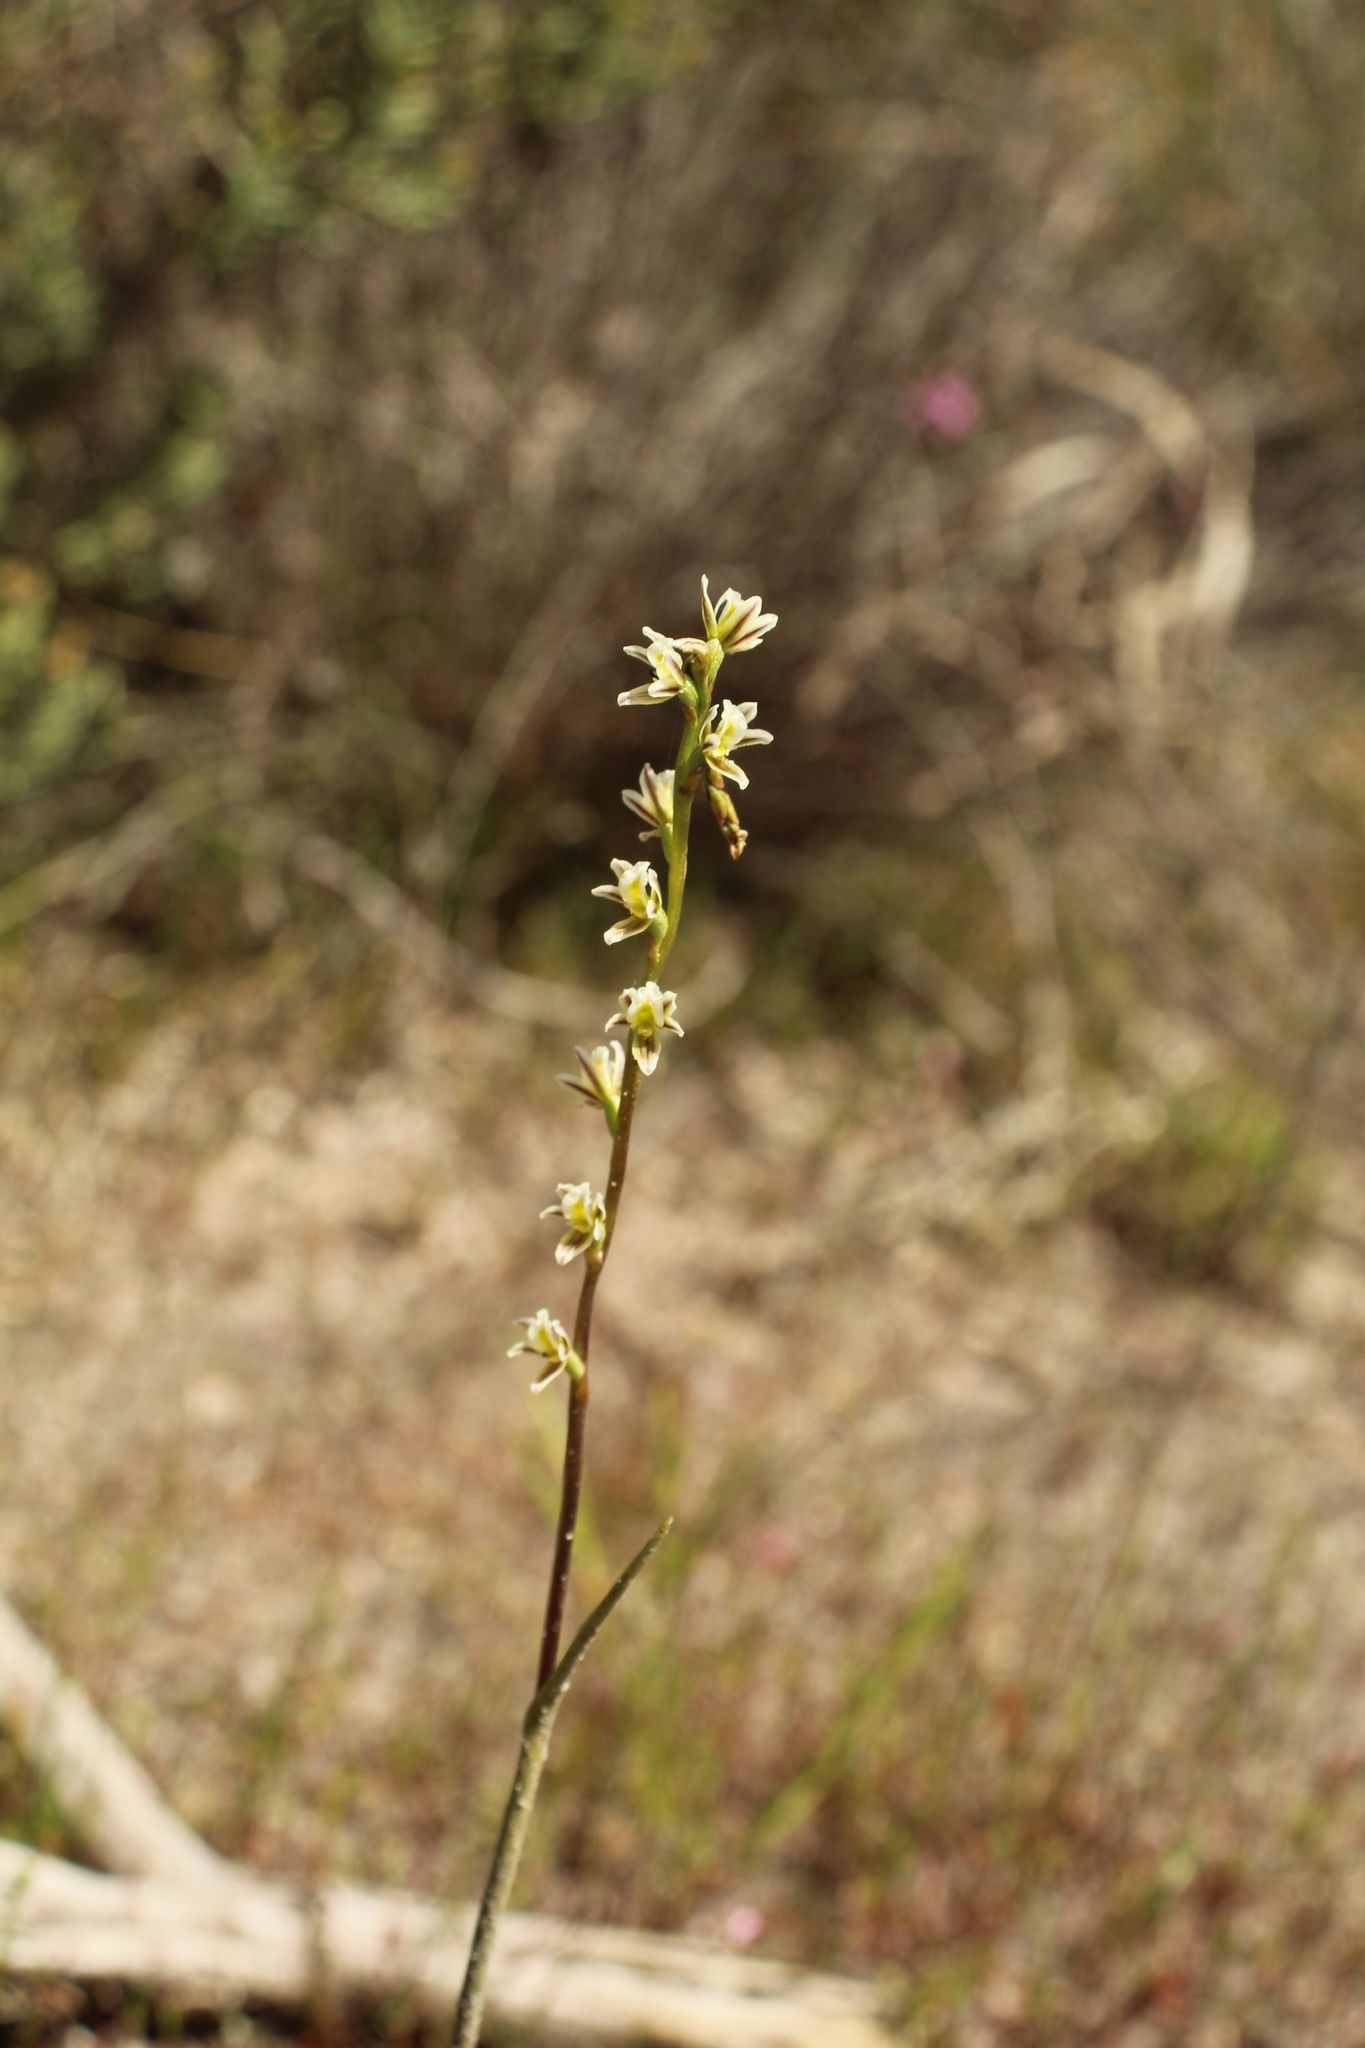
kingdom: Plantae
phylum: Tracheophyta
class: Liliopsida
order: Asparagales
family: Orchidaceae
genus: Prasophyllum
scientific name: Prasophyllum plumiforme
